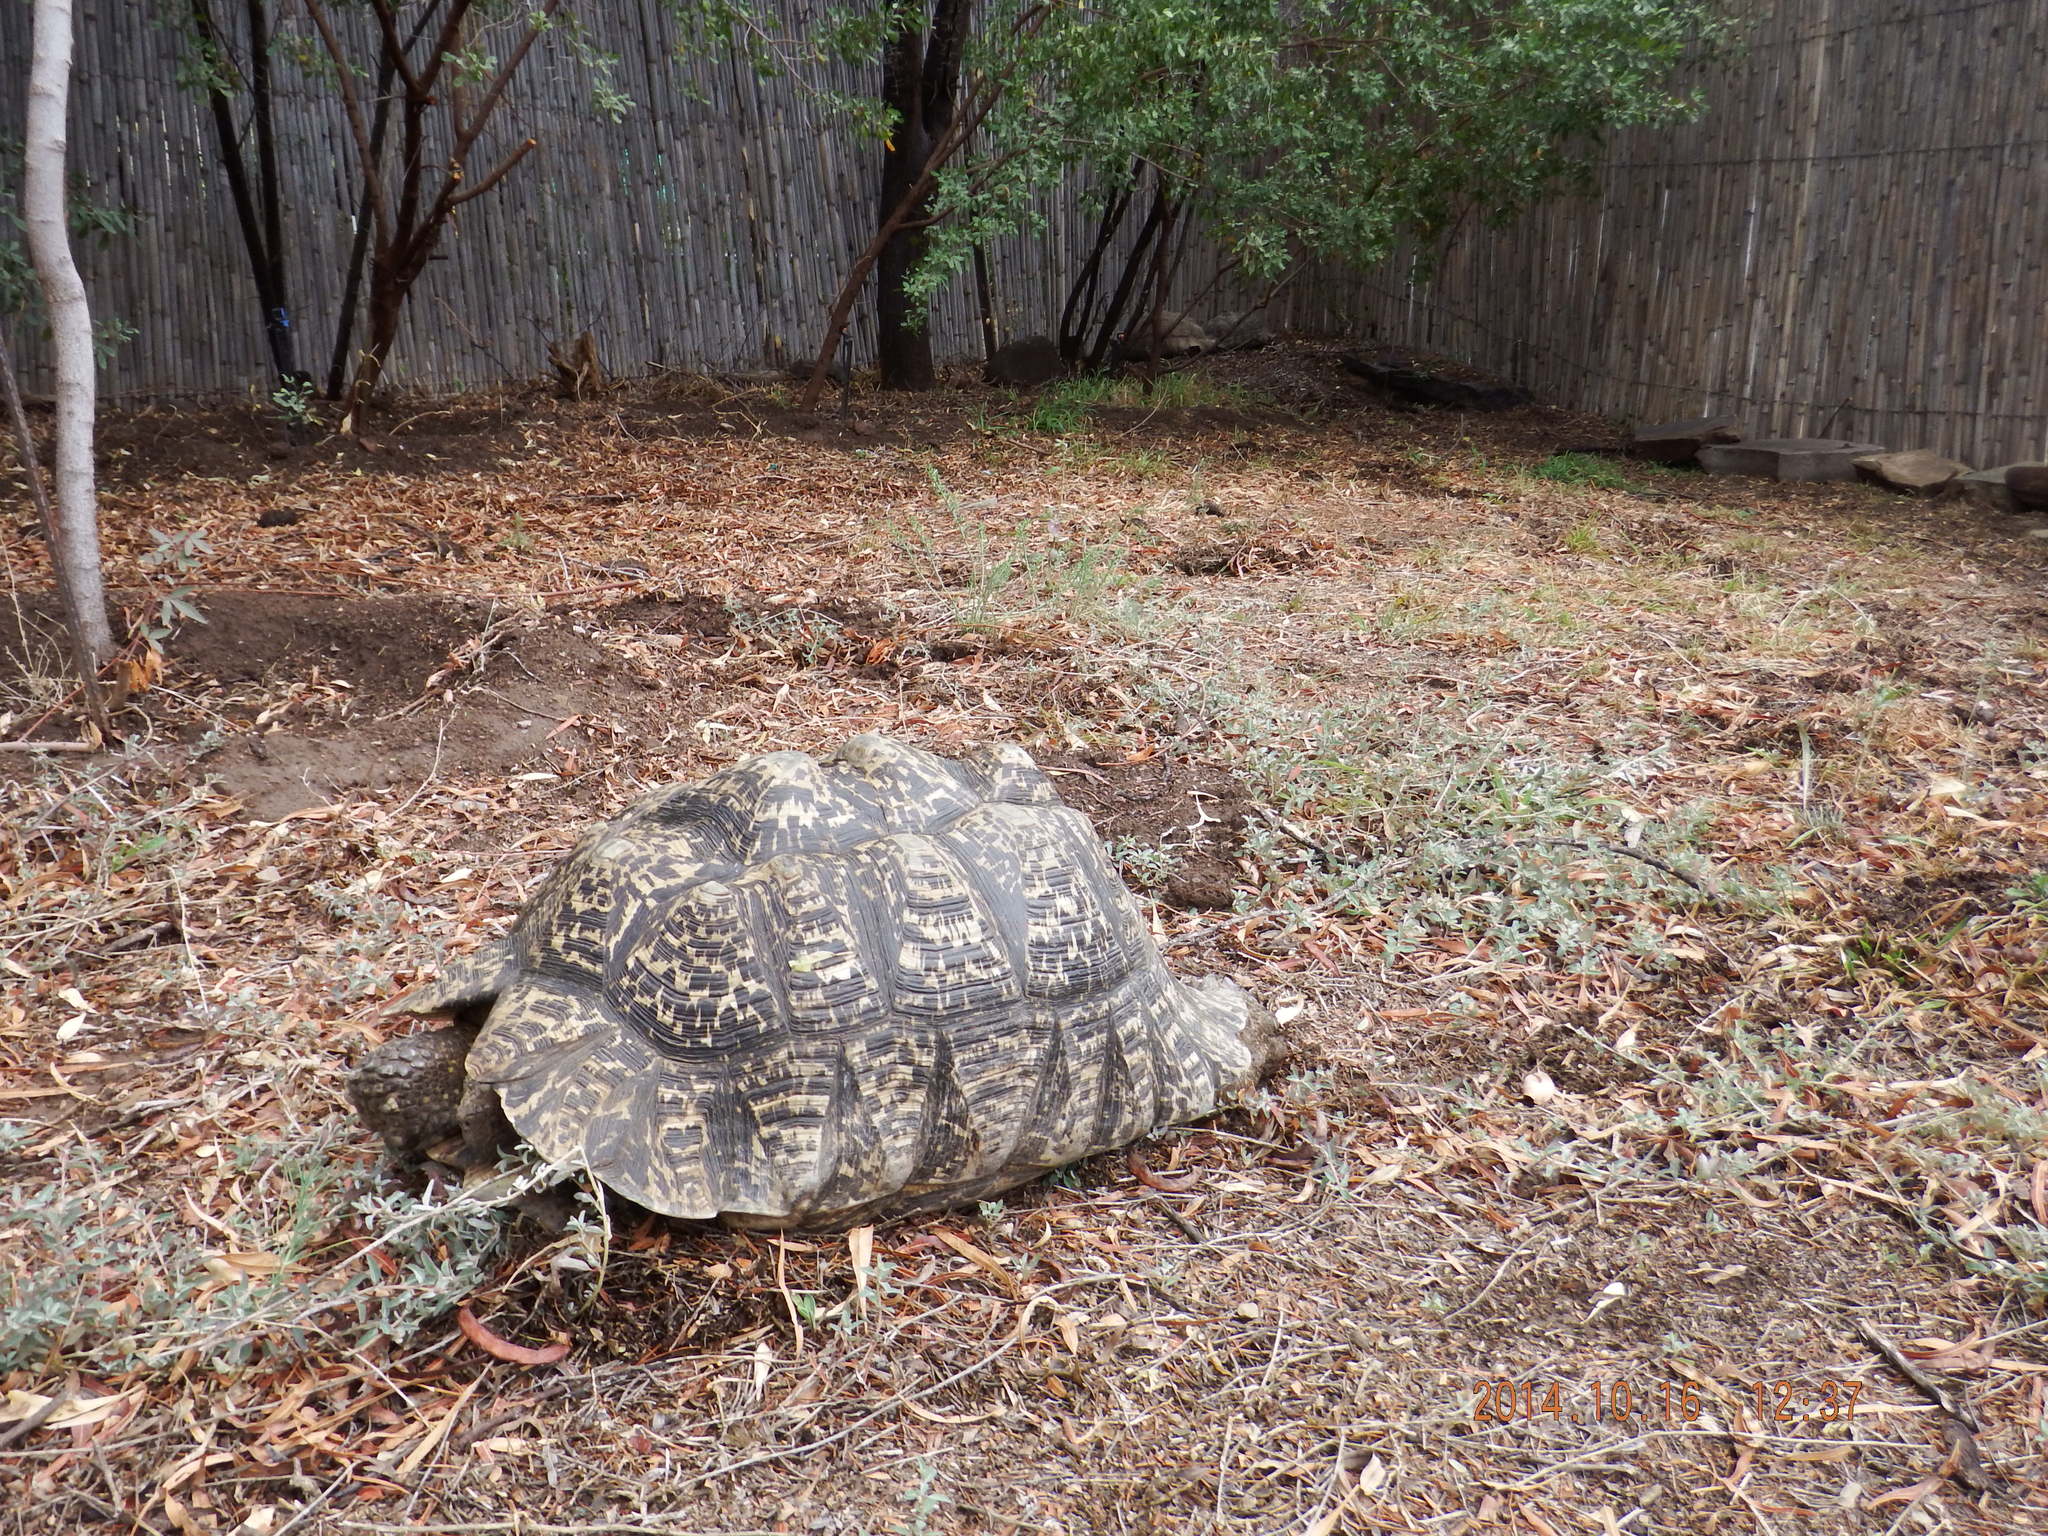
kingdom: Animalia
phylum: Chordata
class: Testudines
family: Testudinidae
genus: Stigmochelys
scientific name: Stigmochelys pardalis
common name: Leopard tortoise
